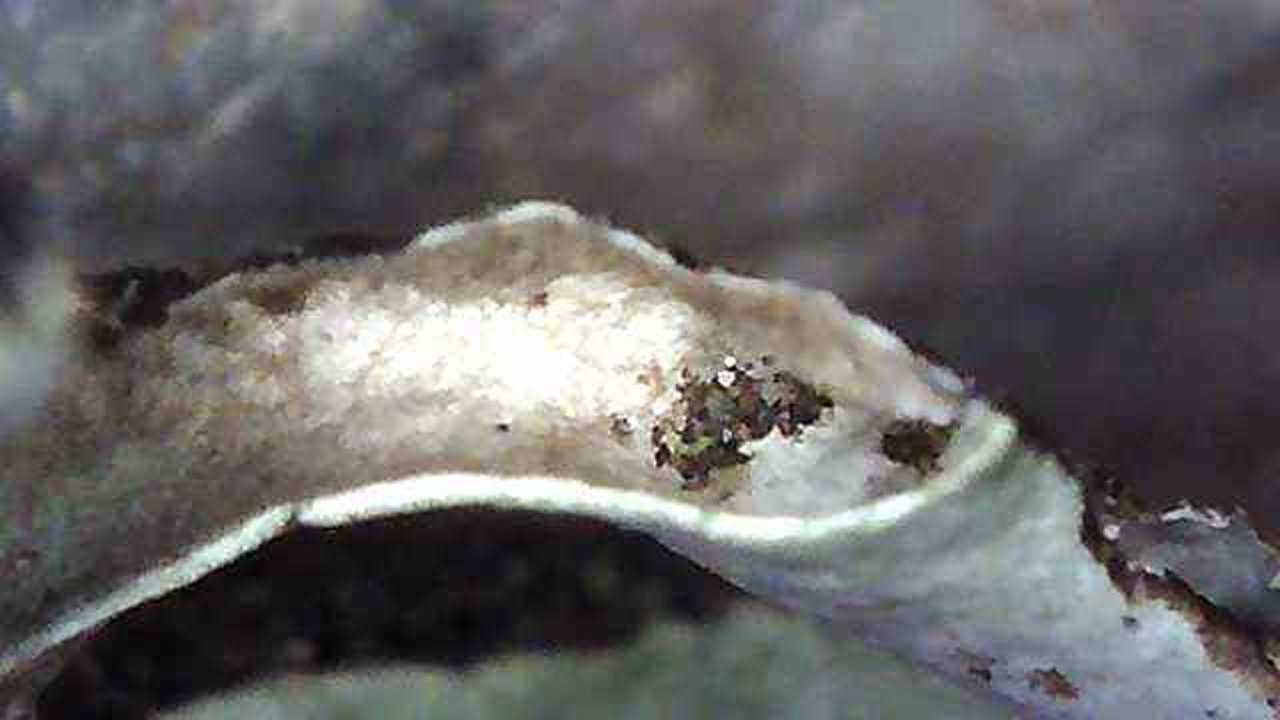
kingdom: Fungi
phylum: Ascomycota
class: Lecanoromycetes
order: Lecanorales
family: Parmeliaceae
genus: Hypogymnia
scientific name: Hypogymnia imshaugii
